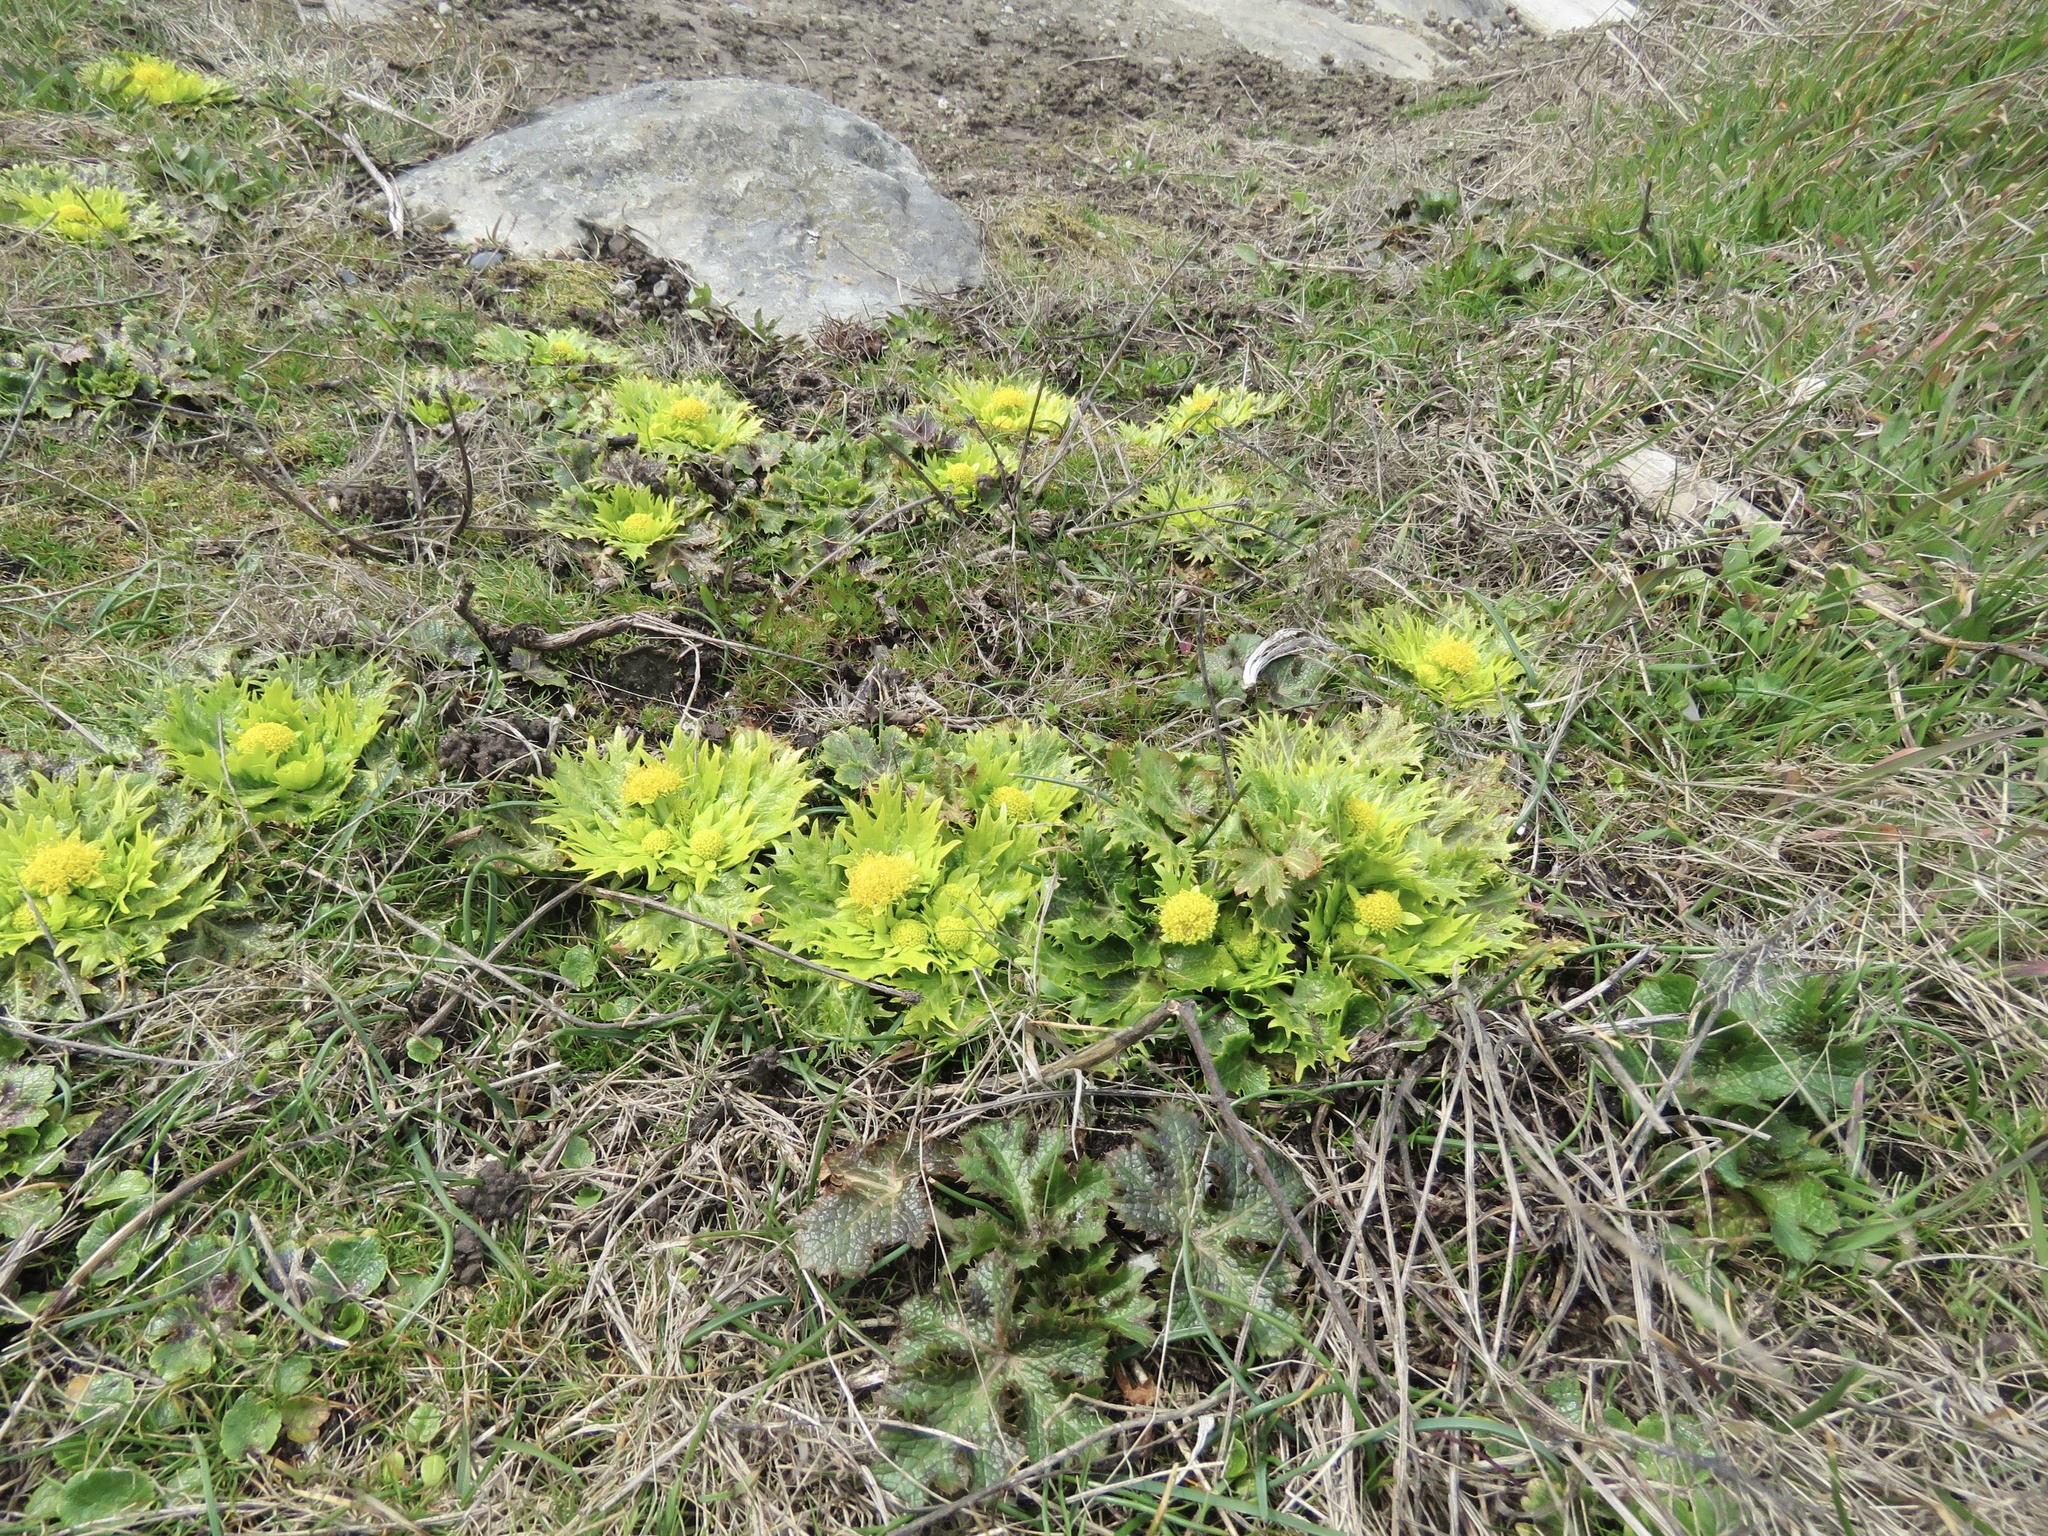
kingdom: Plantae
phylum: Tracheophyta
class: Magnoliopsida
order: Apiales
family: Apiaceae
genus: Sanicula
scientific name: Sanicula arctopoides
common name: Footsteps-of-spring
